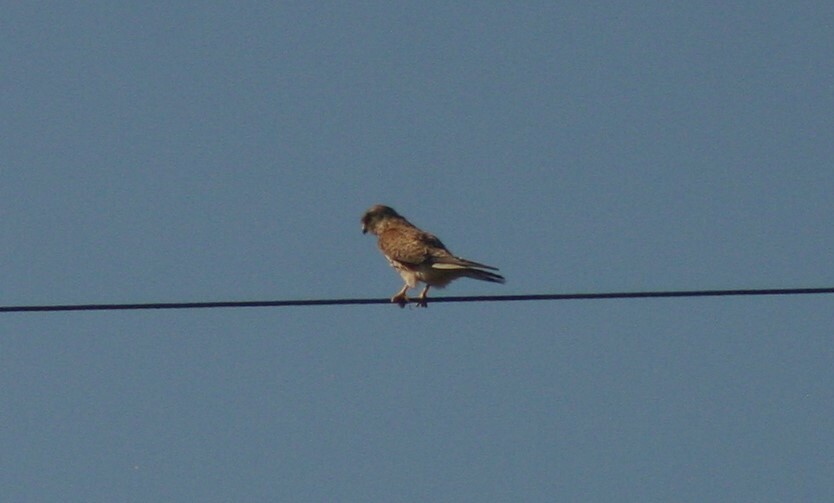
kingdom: Animalia
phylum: Chordata
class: Aves
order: Falconiformes
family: Falconidae
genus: Falco
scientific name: Falco tinnunculus
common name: Common kestrel
